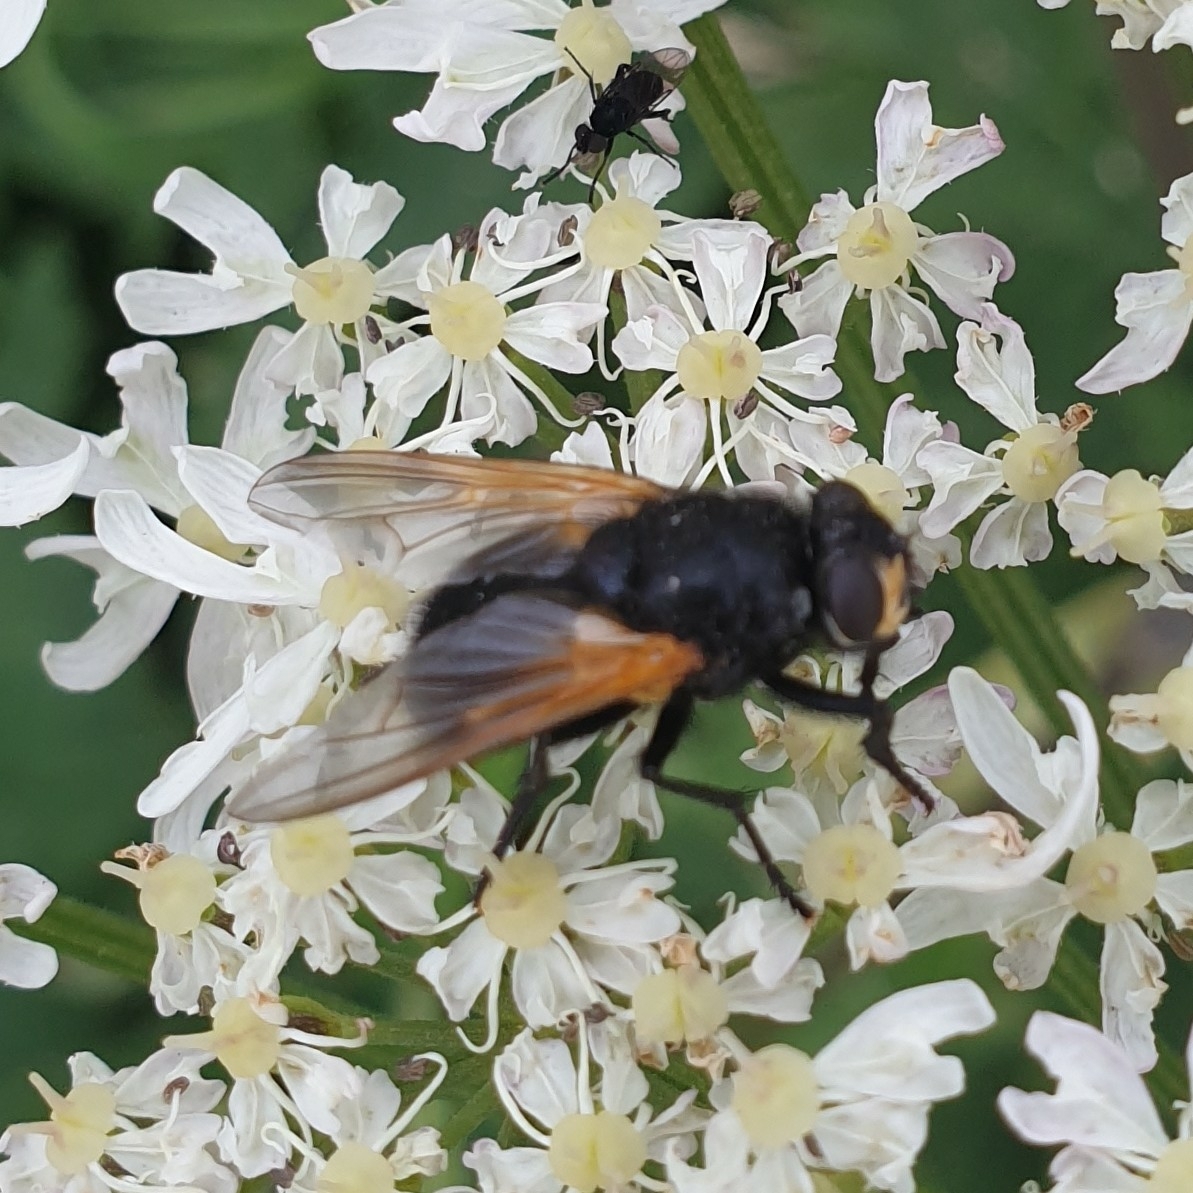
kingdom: Animalia
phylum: Arthropoda
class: Insecta
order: Diptera
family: Muscidae
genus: Mesembrina
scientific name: Mesembrina meridiana
